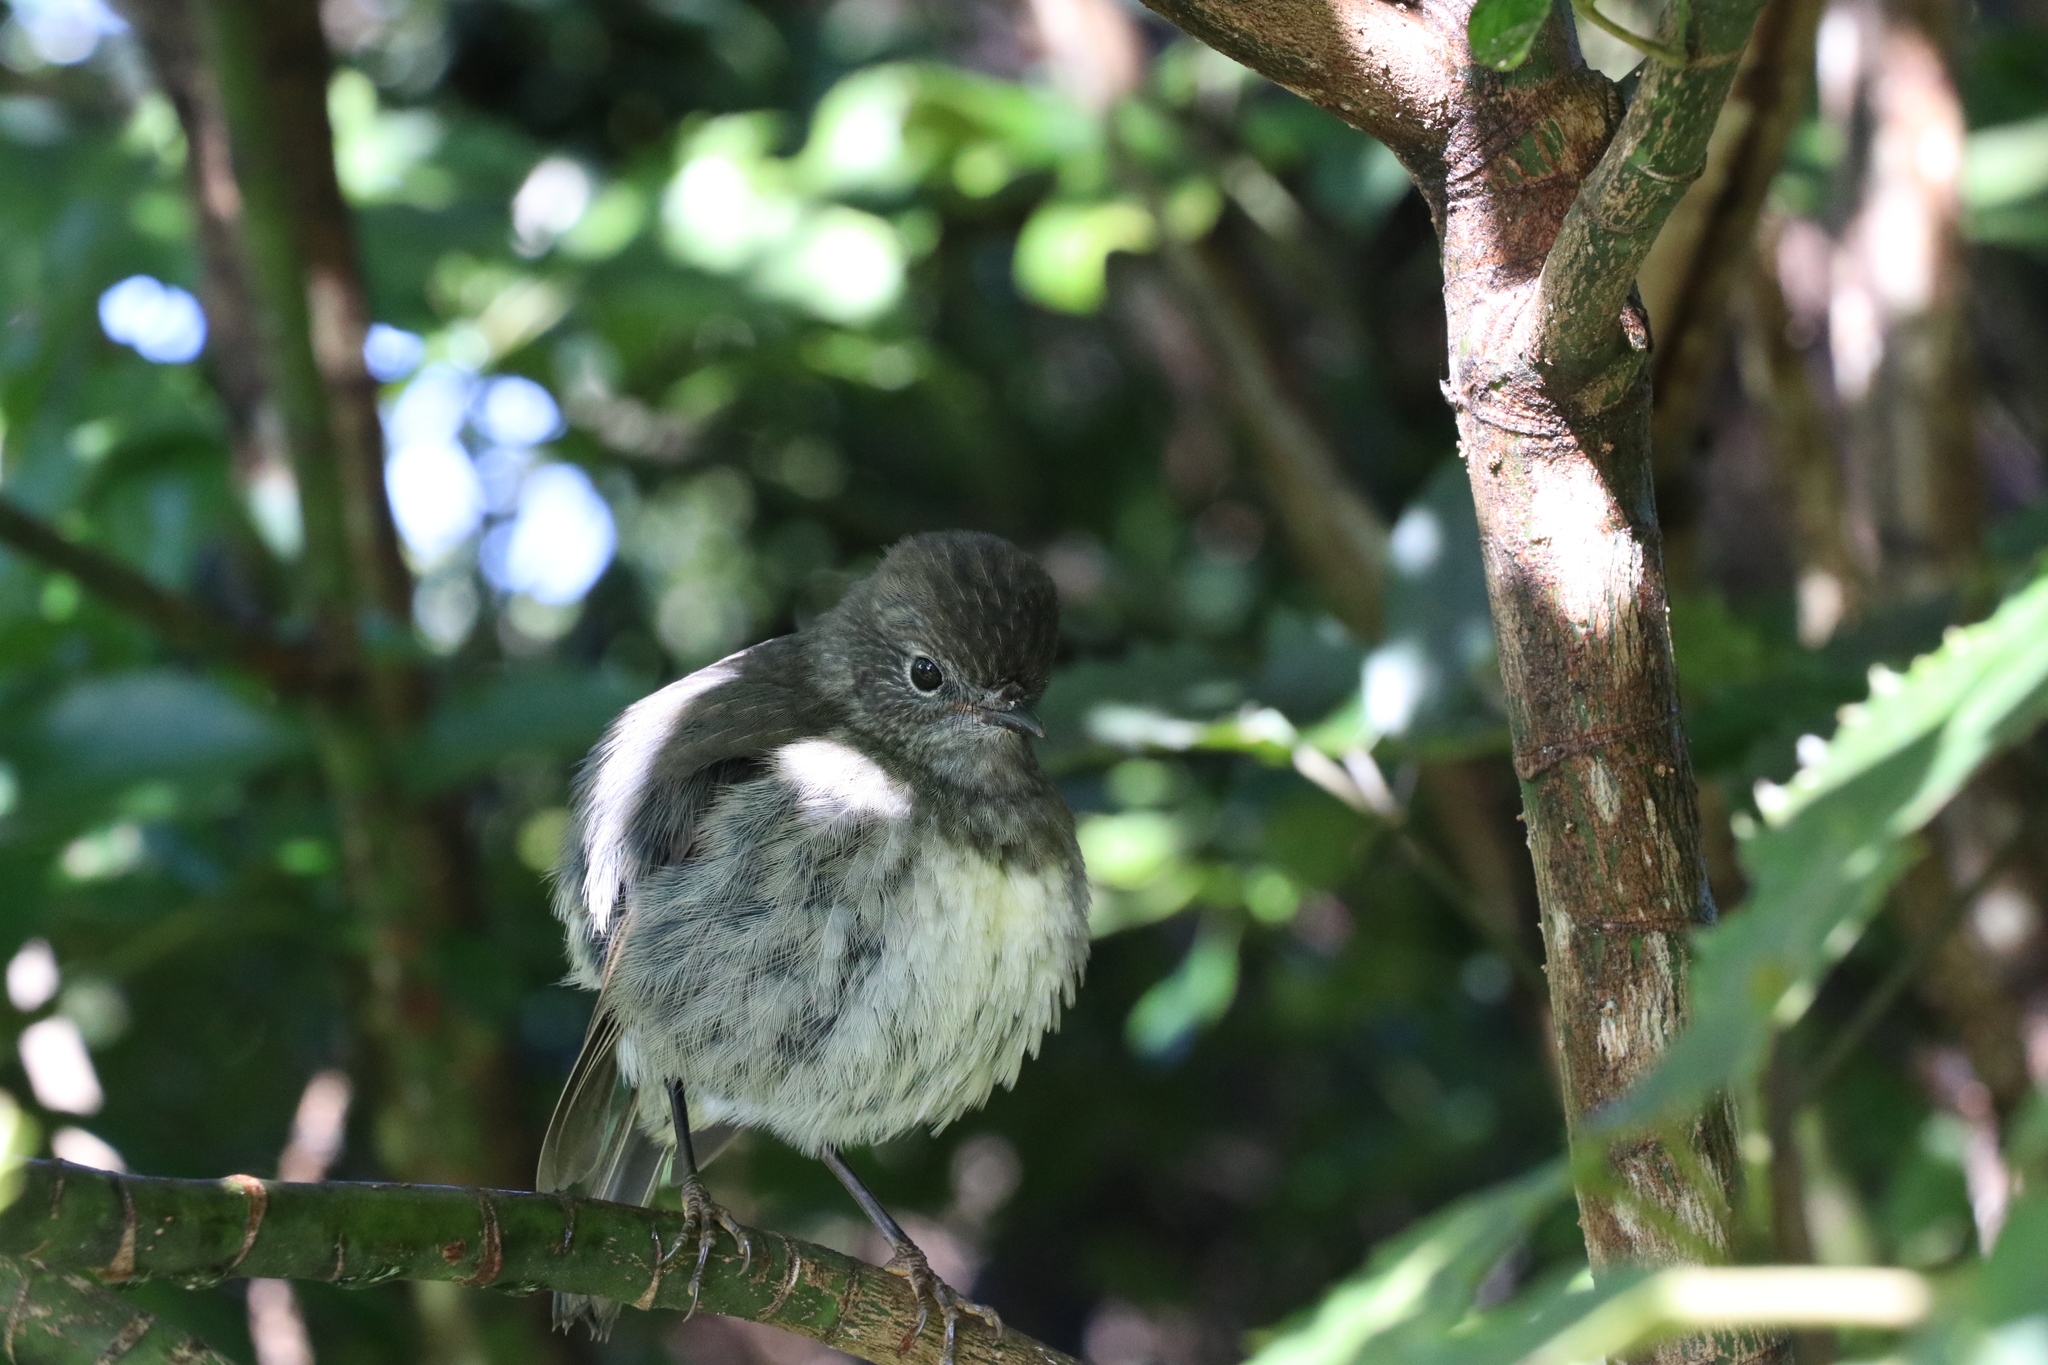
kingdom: Animalia
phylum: Chordata
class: Aves
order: Passeriformes
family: Petroicidae
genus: Petroica
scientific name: Petroica australis
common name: New zealand robin
